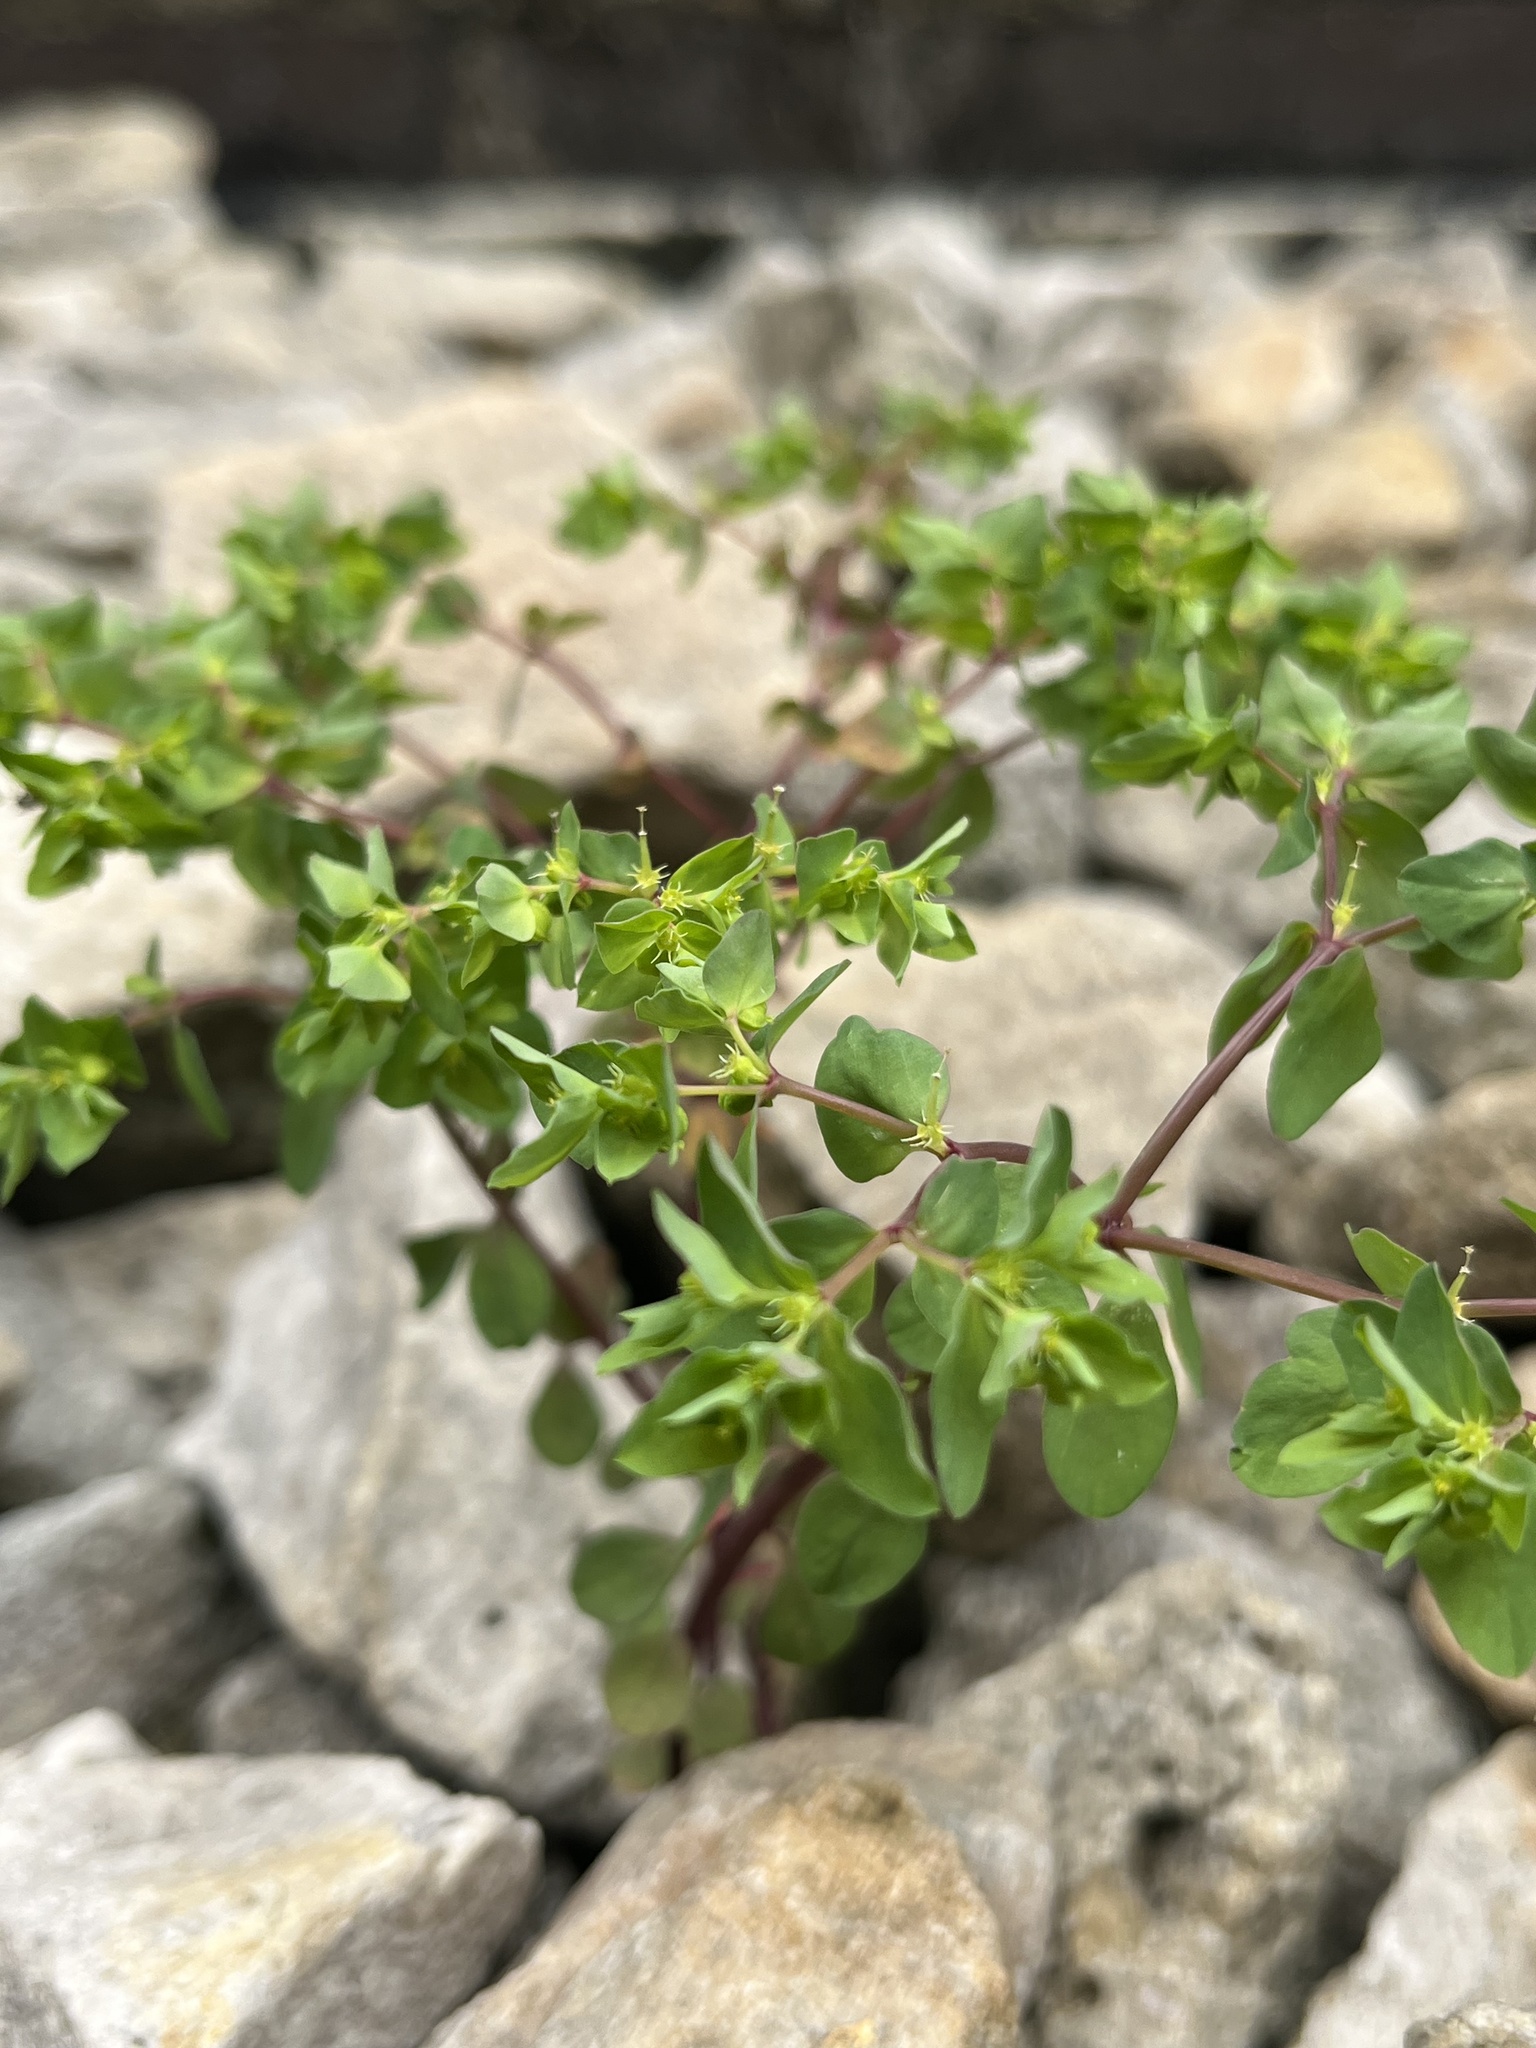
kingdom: Plantae
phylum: Tracheophyta
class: Magnoliopsida
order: Malpighiales
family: Euphorbiaceae
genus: Euphorbia
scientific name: Euphorbia peplus
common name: Petty spurge
